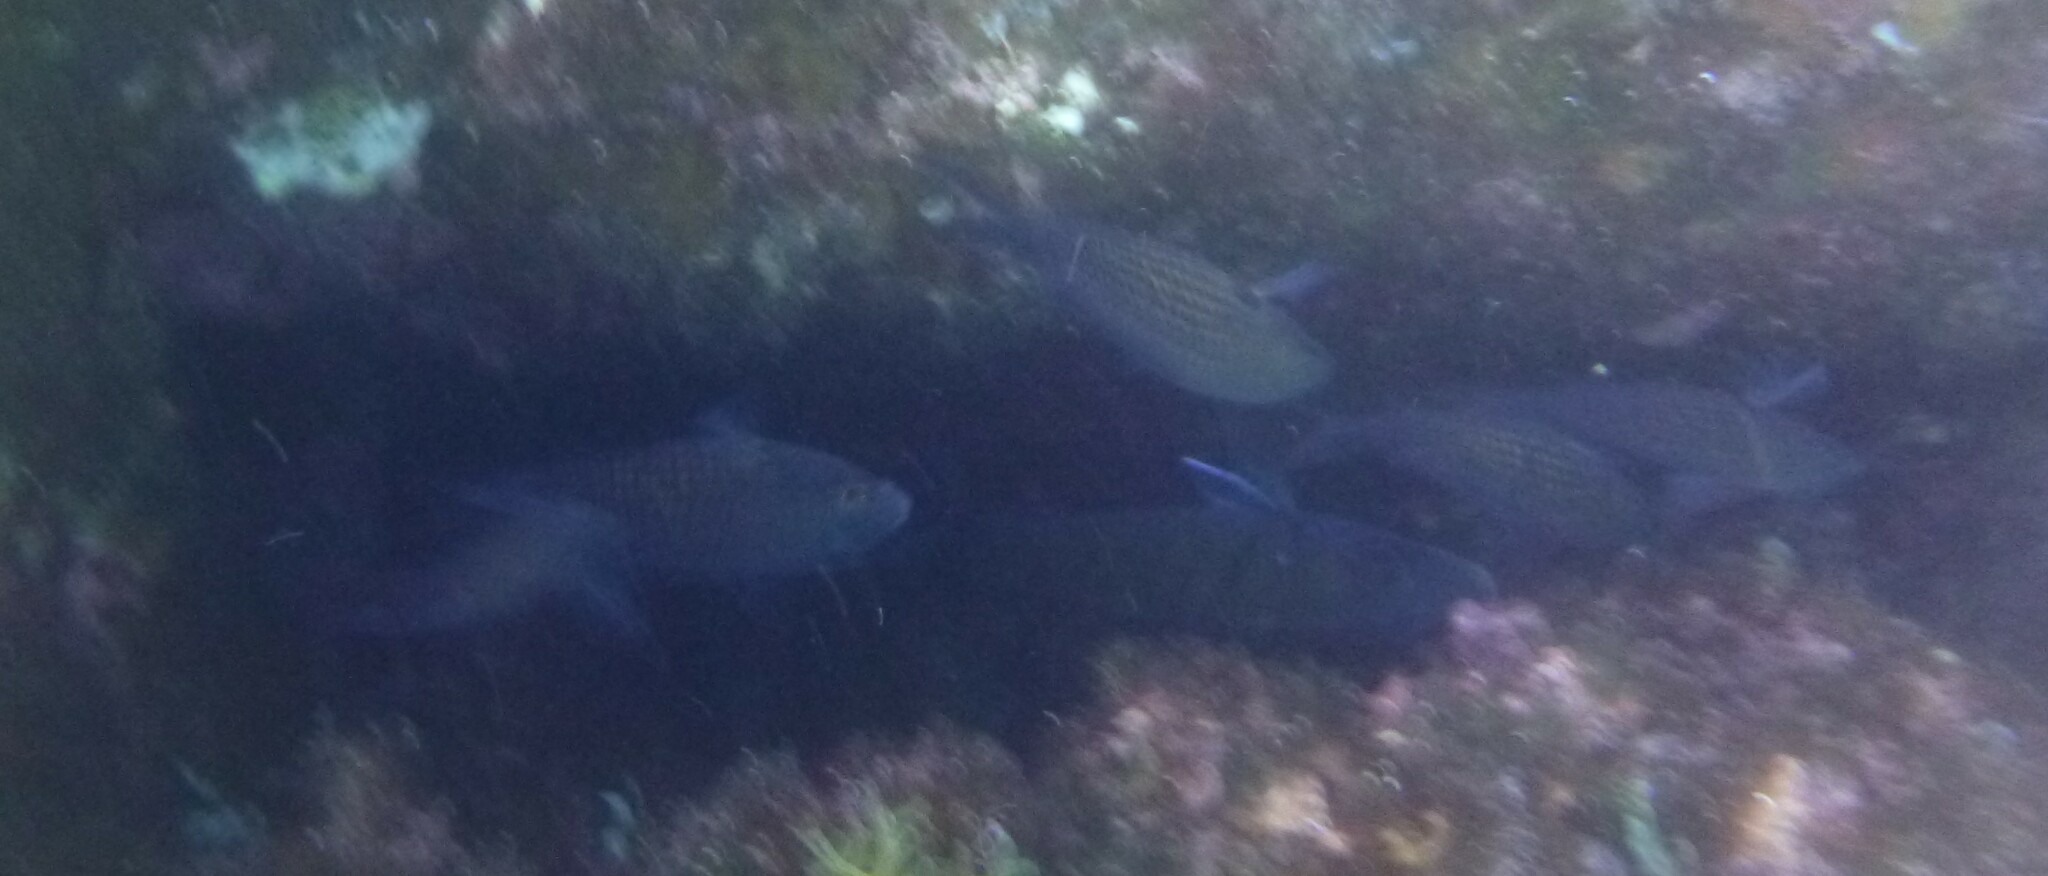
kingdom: Animalia
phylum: Chordata
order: Perciformes
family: Pomacentridae
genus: Chromis
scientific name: Chromis chromis
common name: Damselfish
